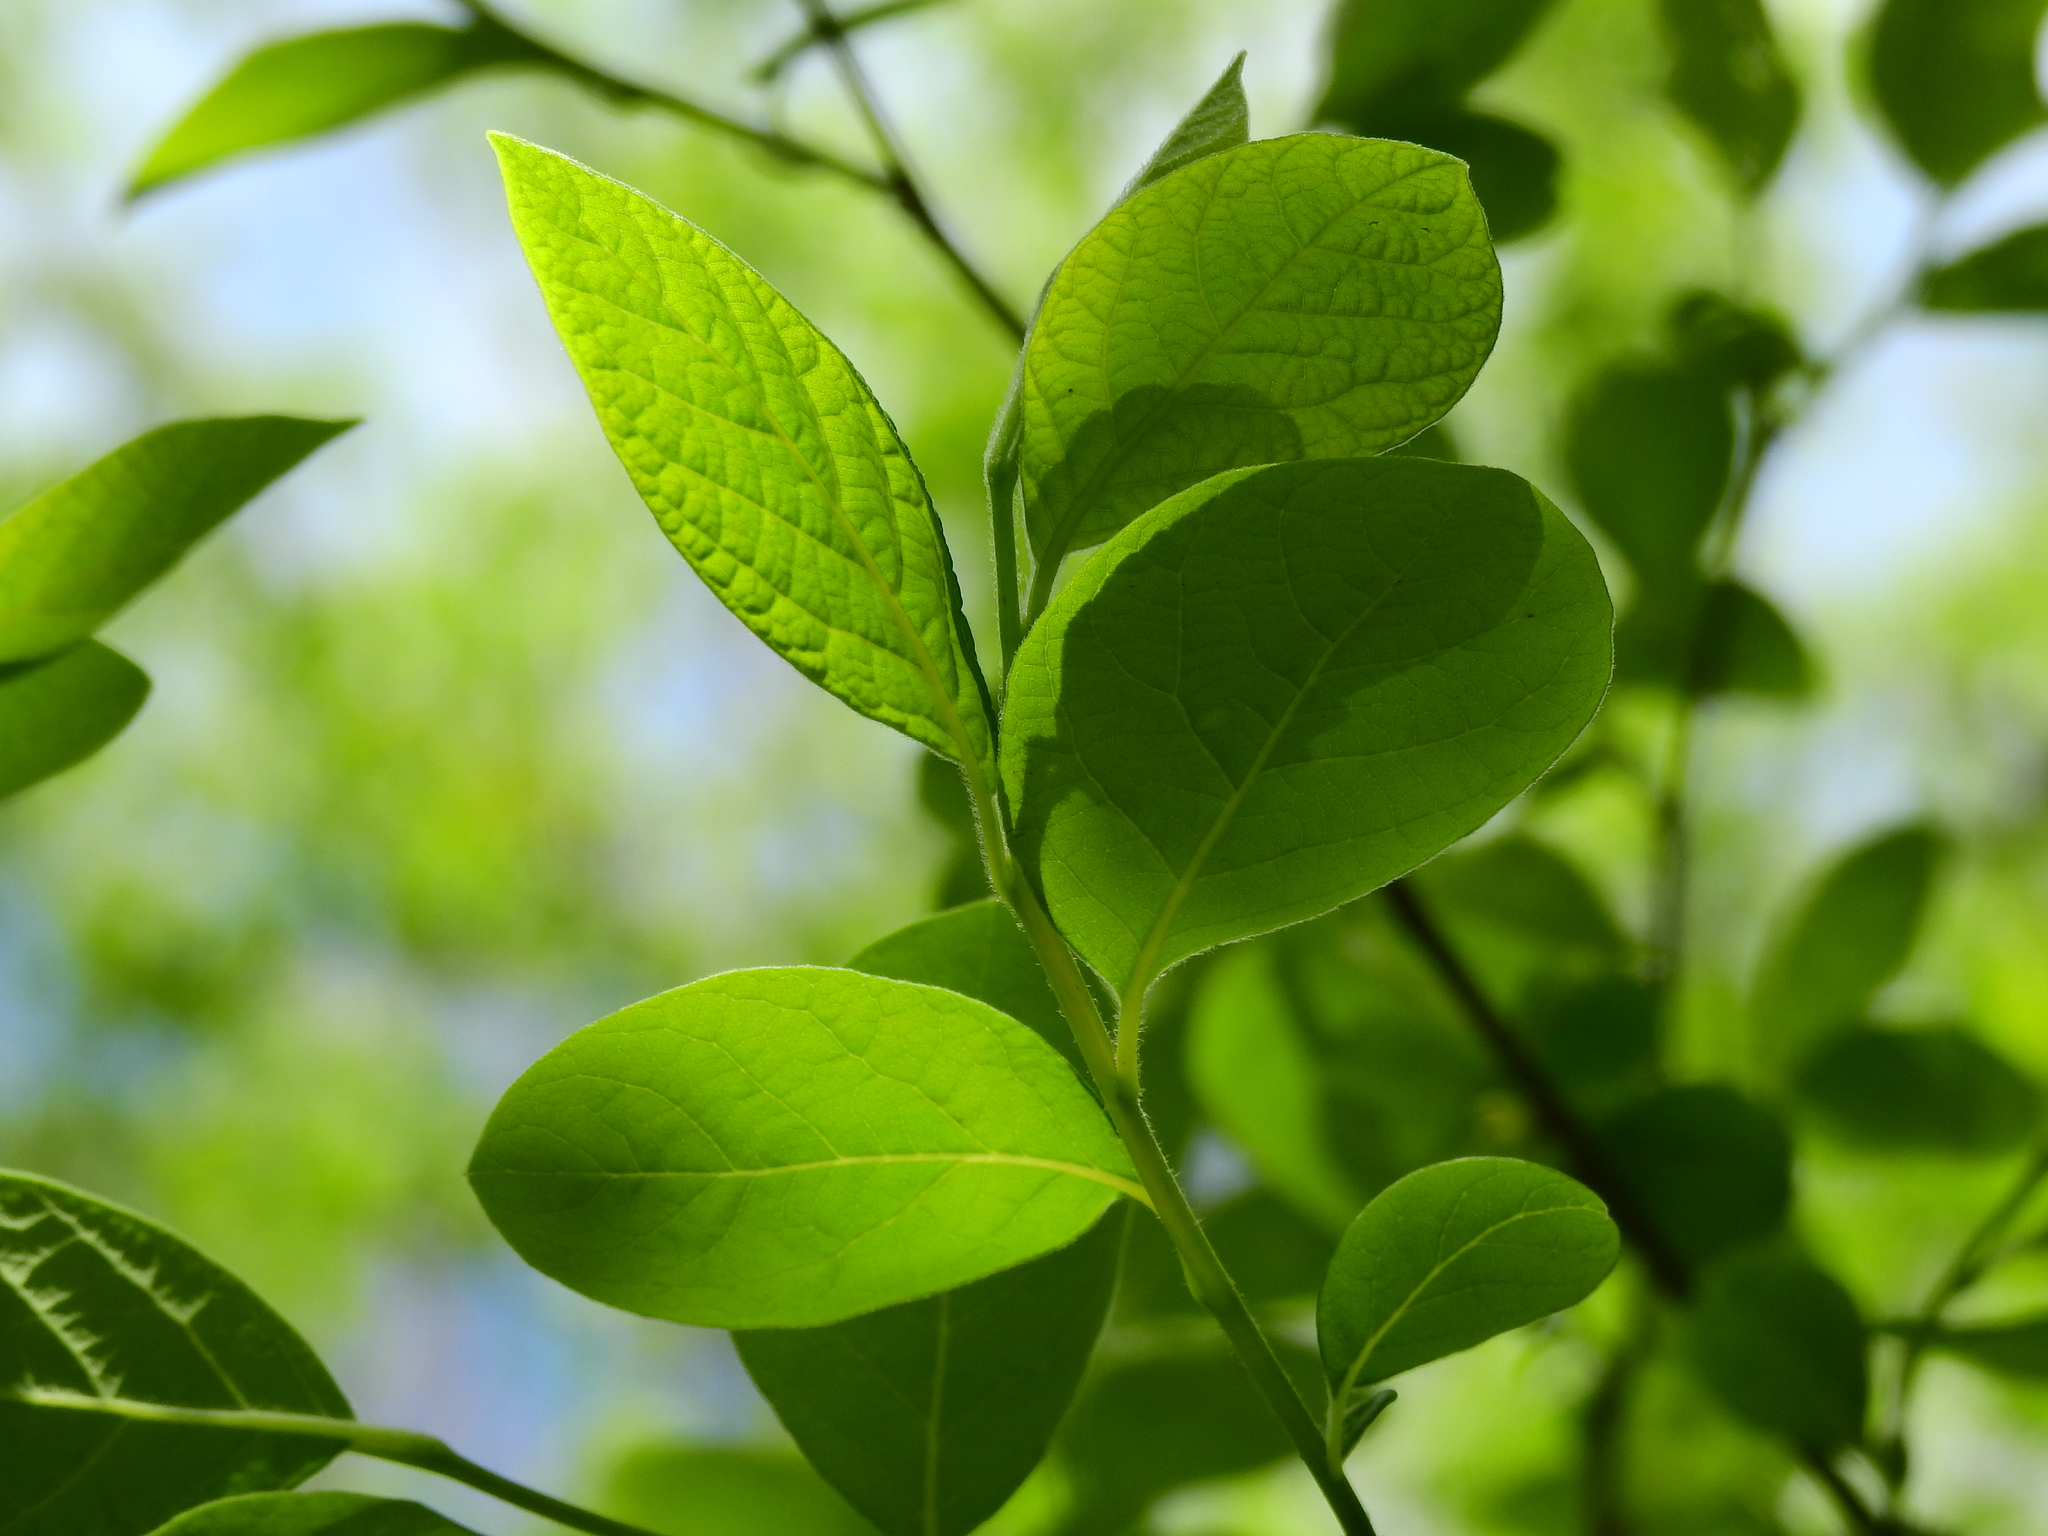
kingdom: Plantae
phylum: Tracheophyta
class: Magnoliopsida
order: Laurales
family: Lauraceae
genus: Lindera
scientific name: Lindera benzoin
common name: Spicebush
